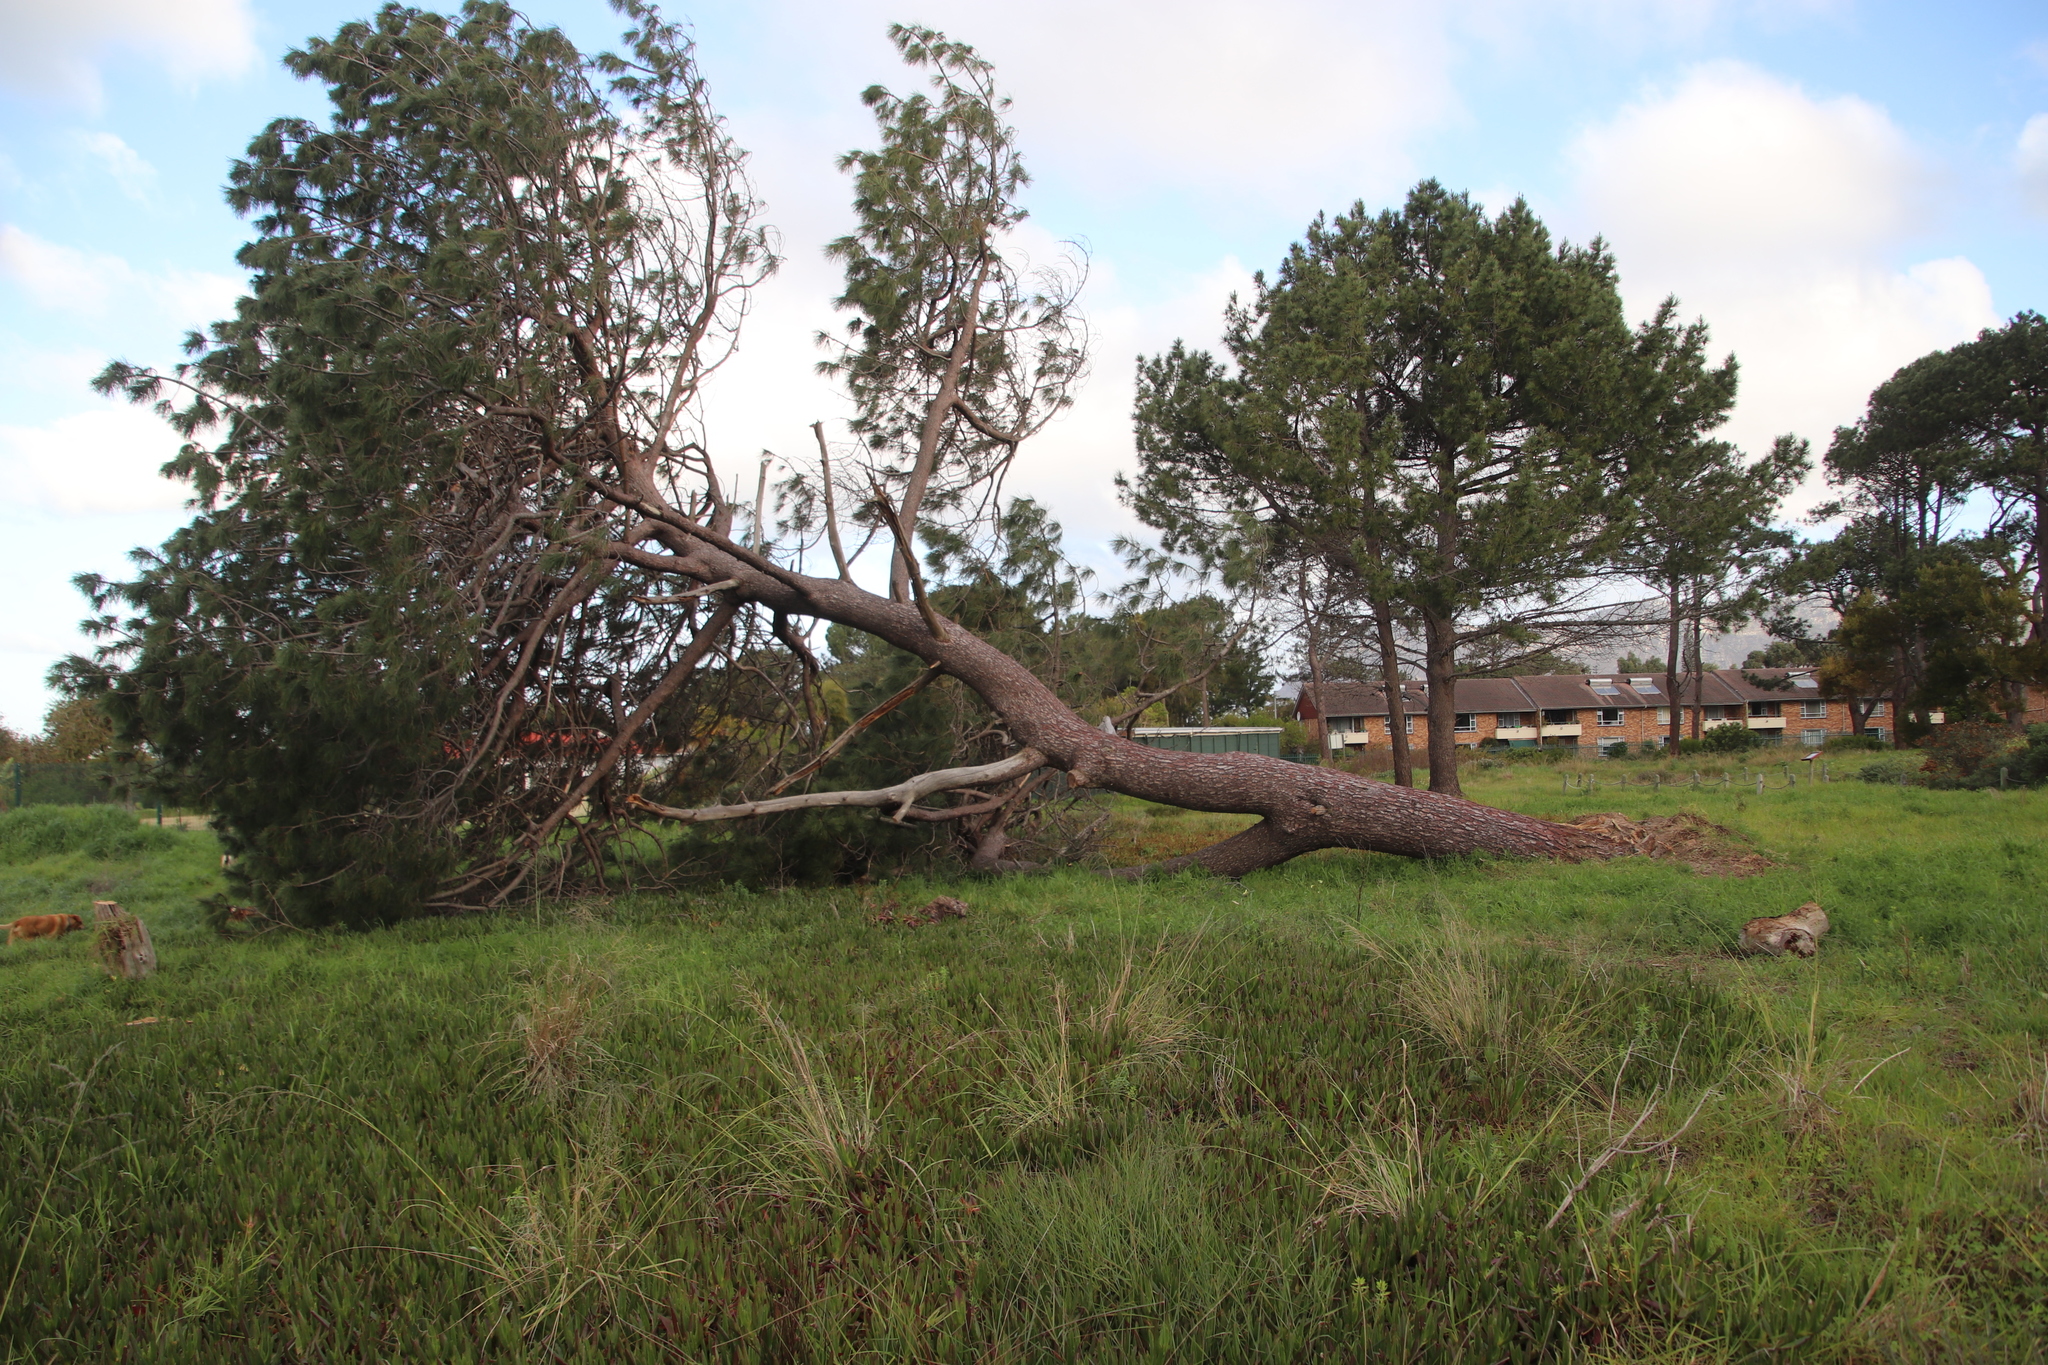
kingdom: Plantae
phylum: Tracheophyta
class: Pinopsida
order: Pinales
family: Pinaceae
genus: Pinus
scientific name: Pinus pinaster
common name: Maritime pine
